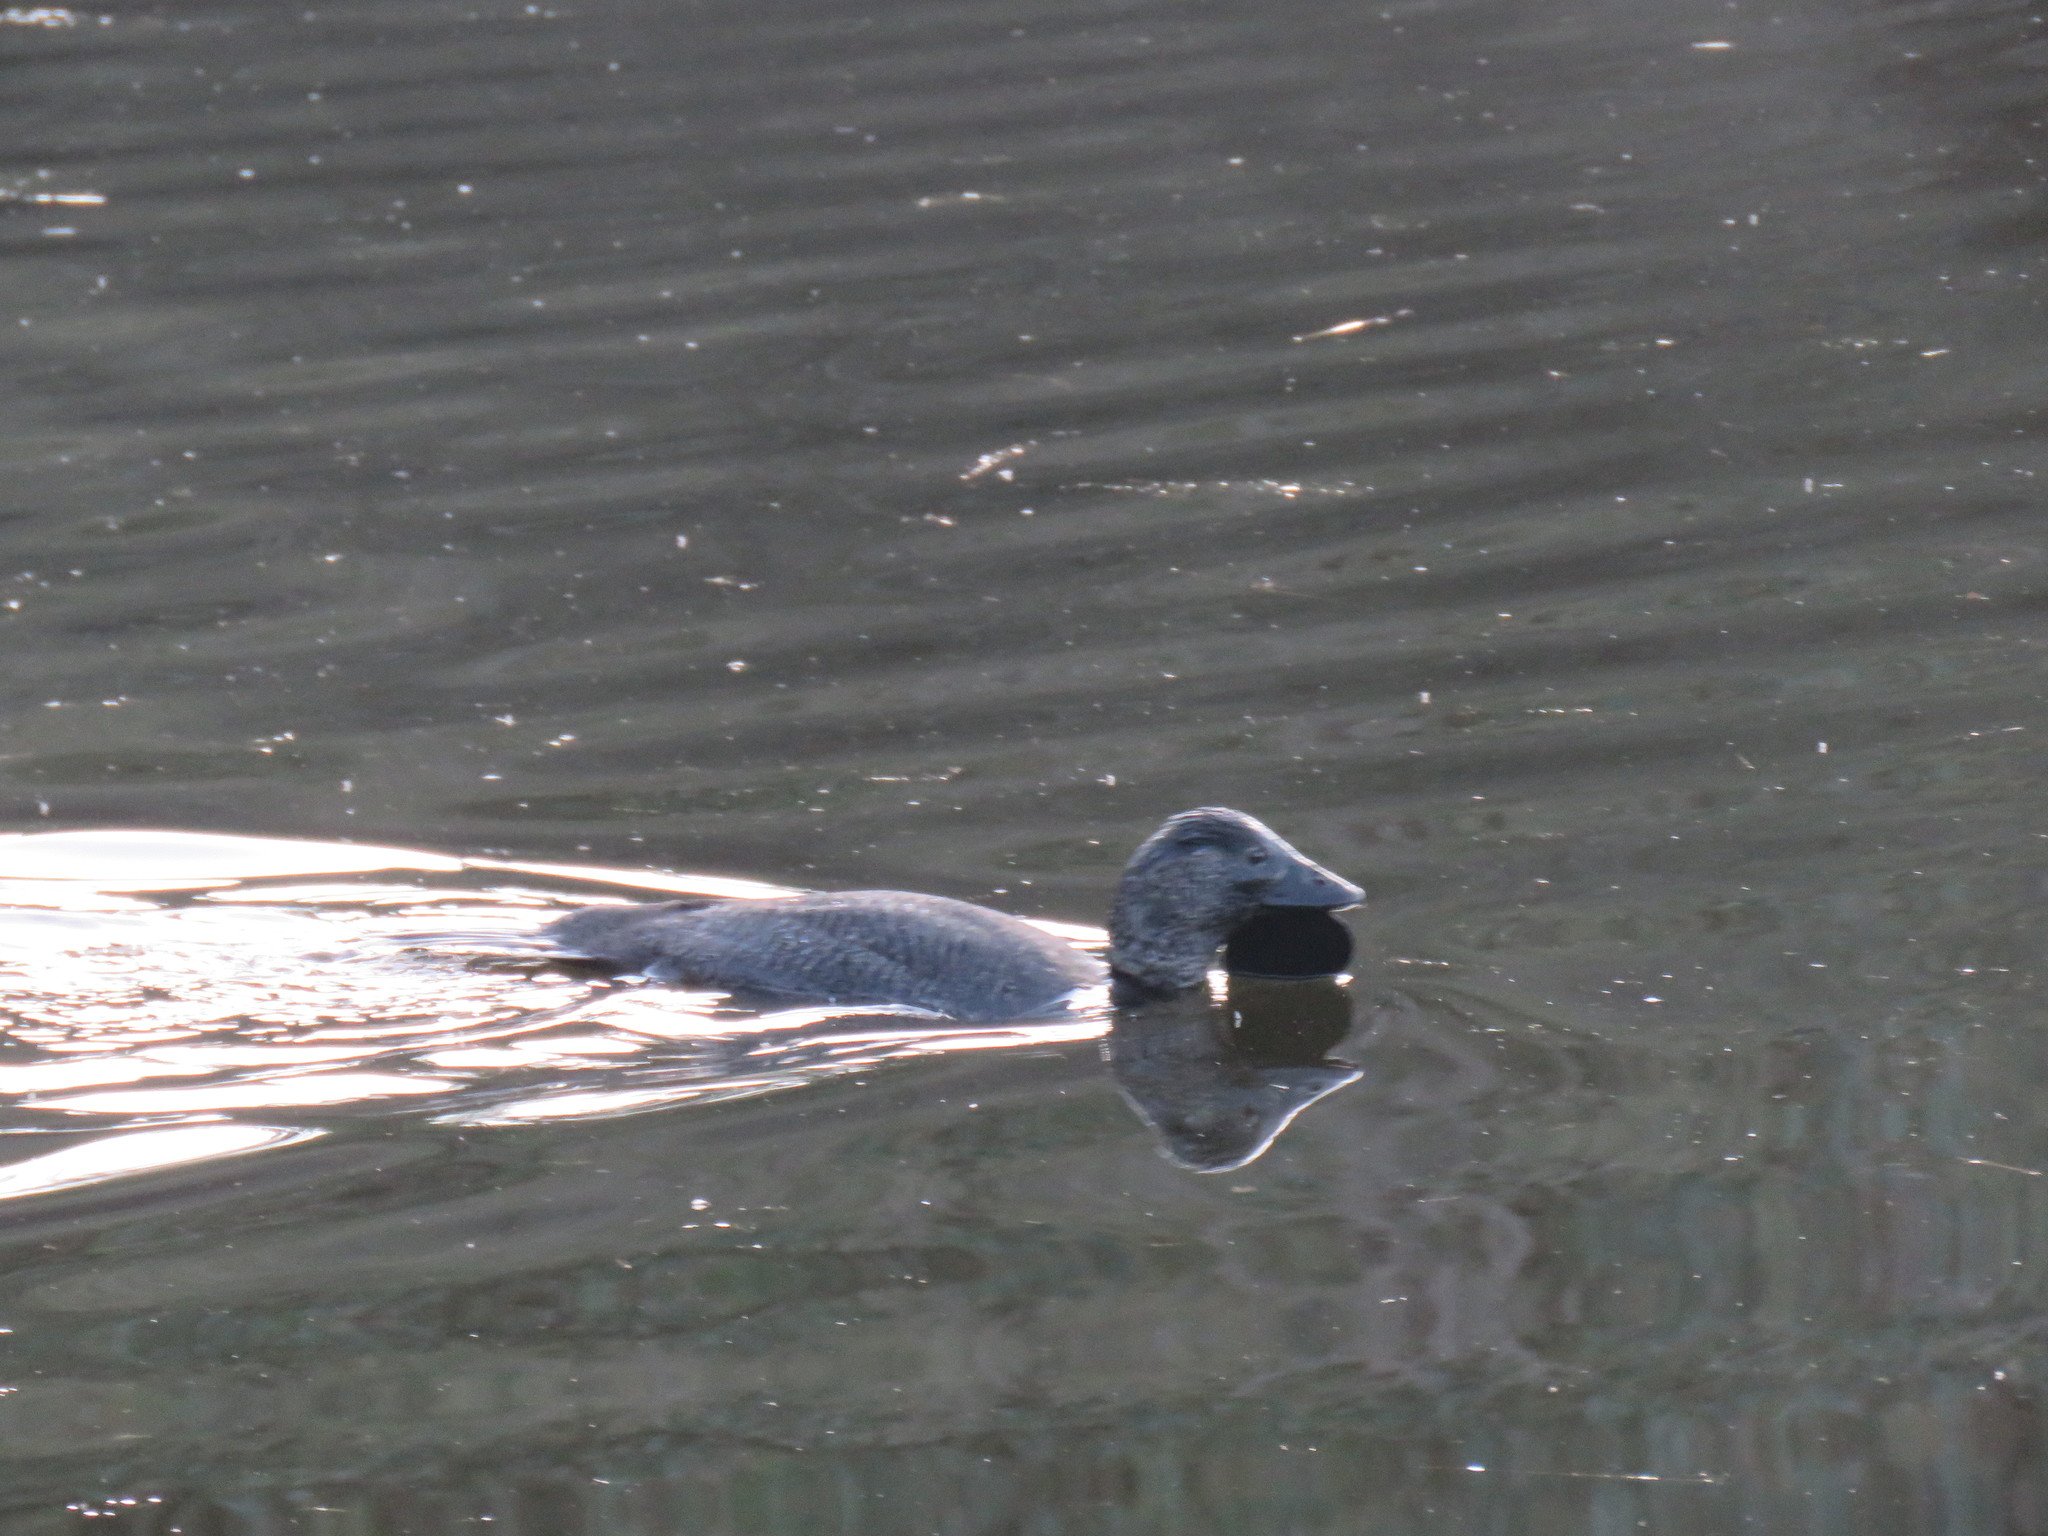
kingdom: Animalia
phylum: Chordata
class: Aves
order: Anseriformes
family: Anatidae
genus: Biziura
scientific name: Biziura lobata
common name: Musk duck
